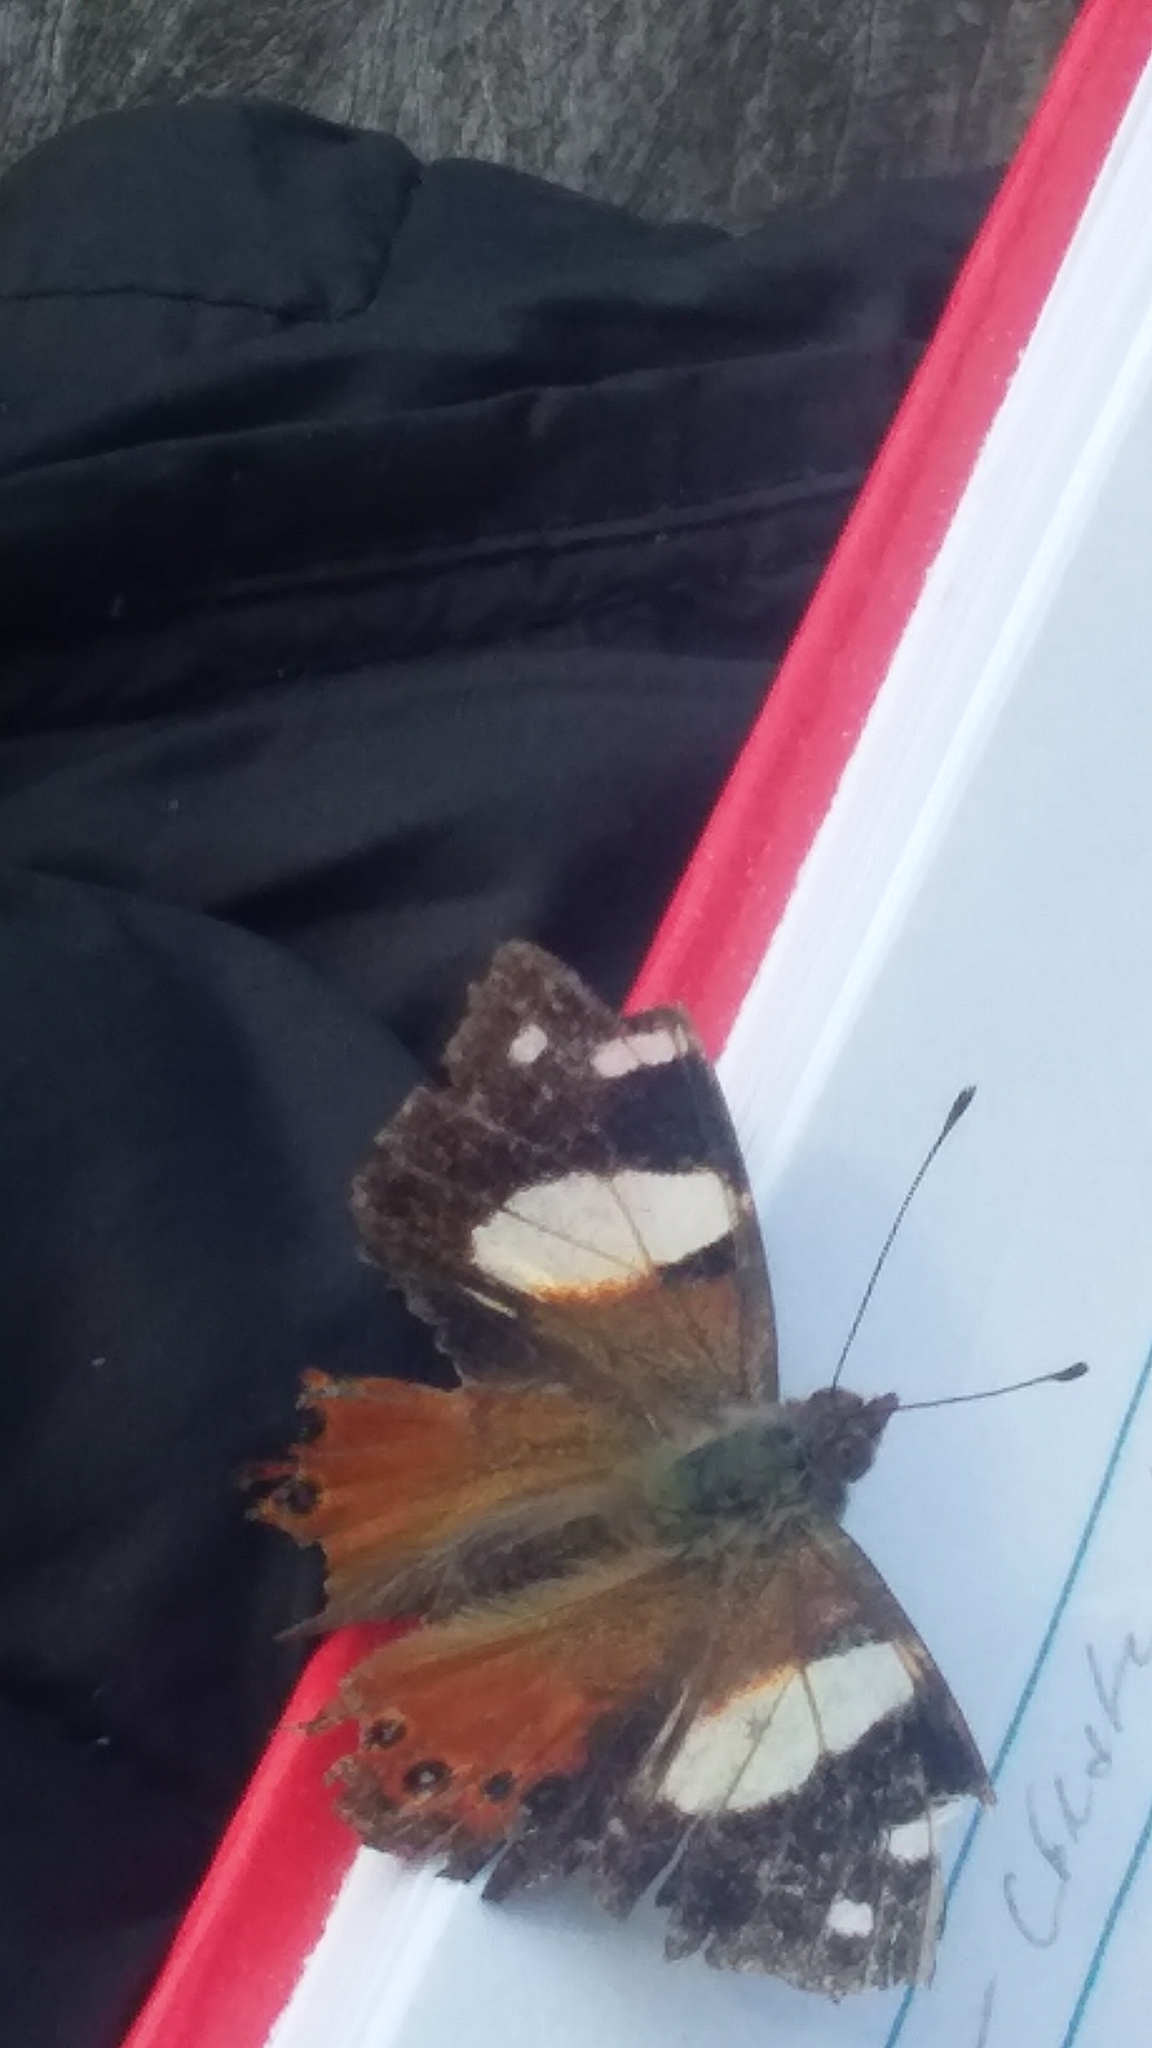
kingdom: Animalia
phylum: Arthropoda
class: Insecta
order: Lepidoptera
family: Nymphalidae
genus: Vanessa
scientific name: Vanessa itea
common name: Yellow admiral
